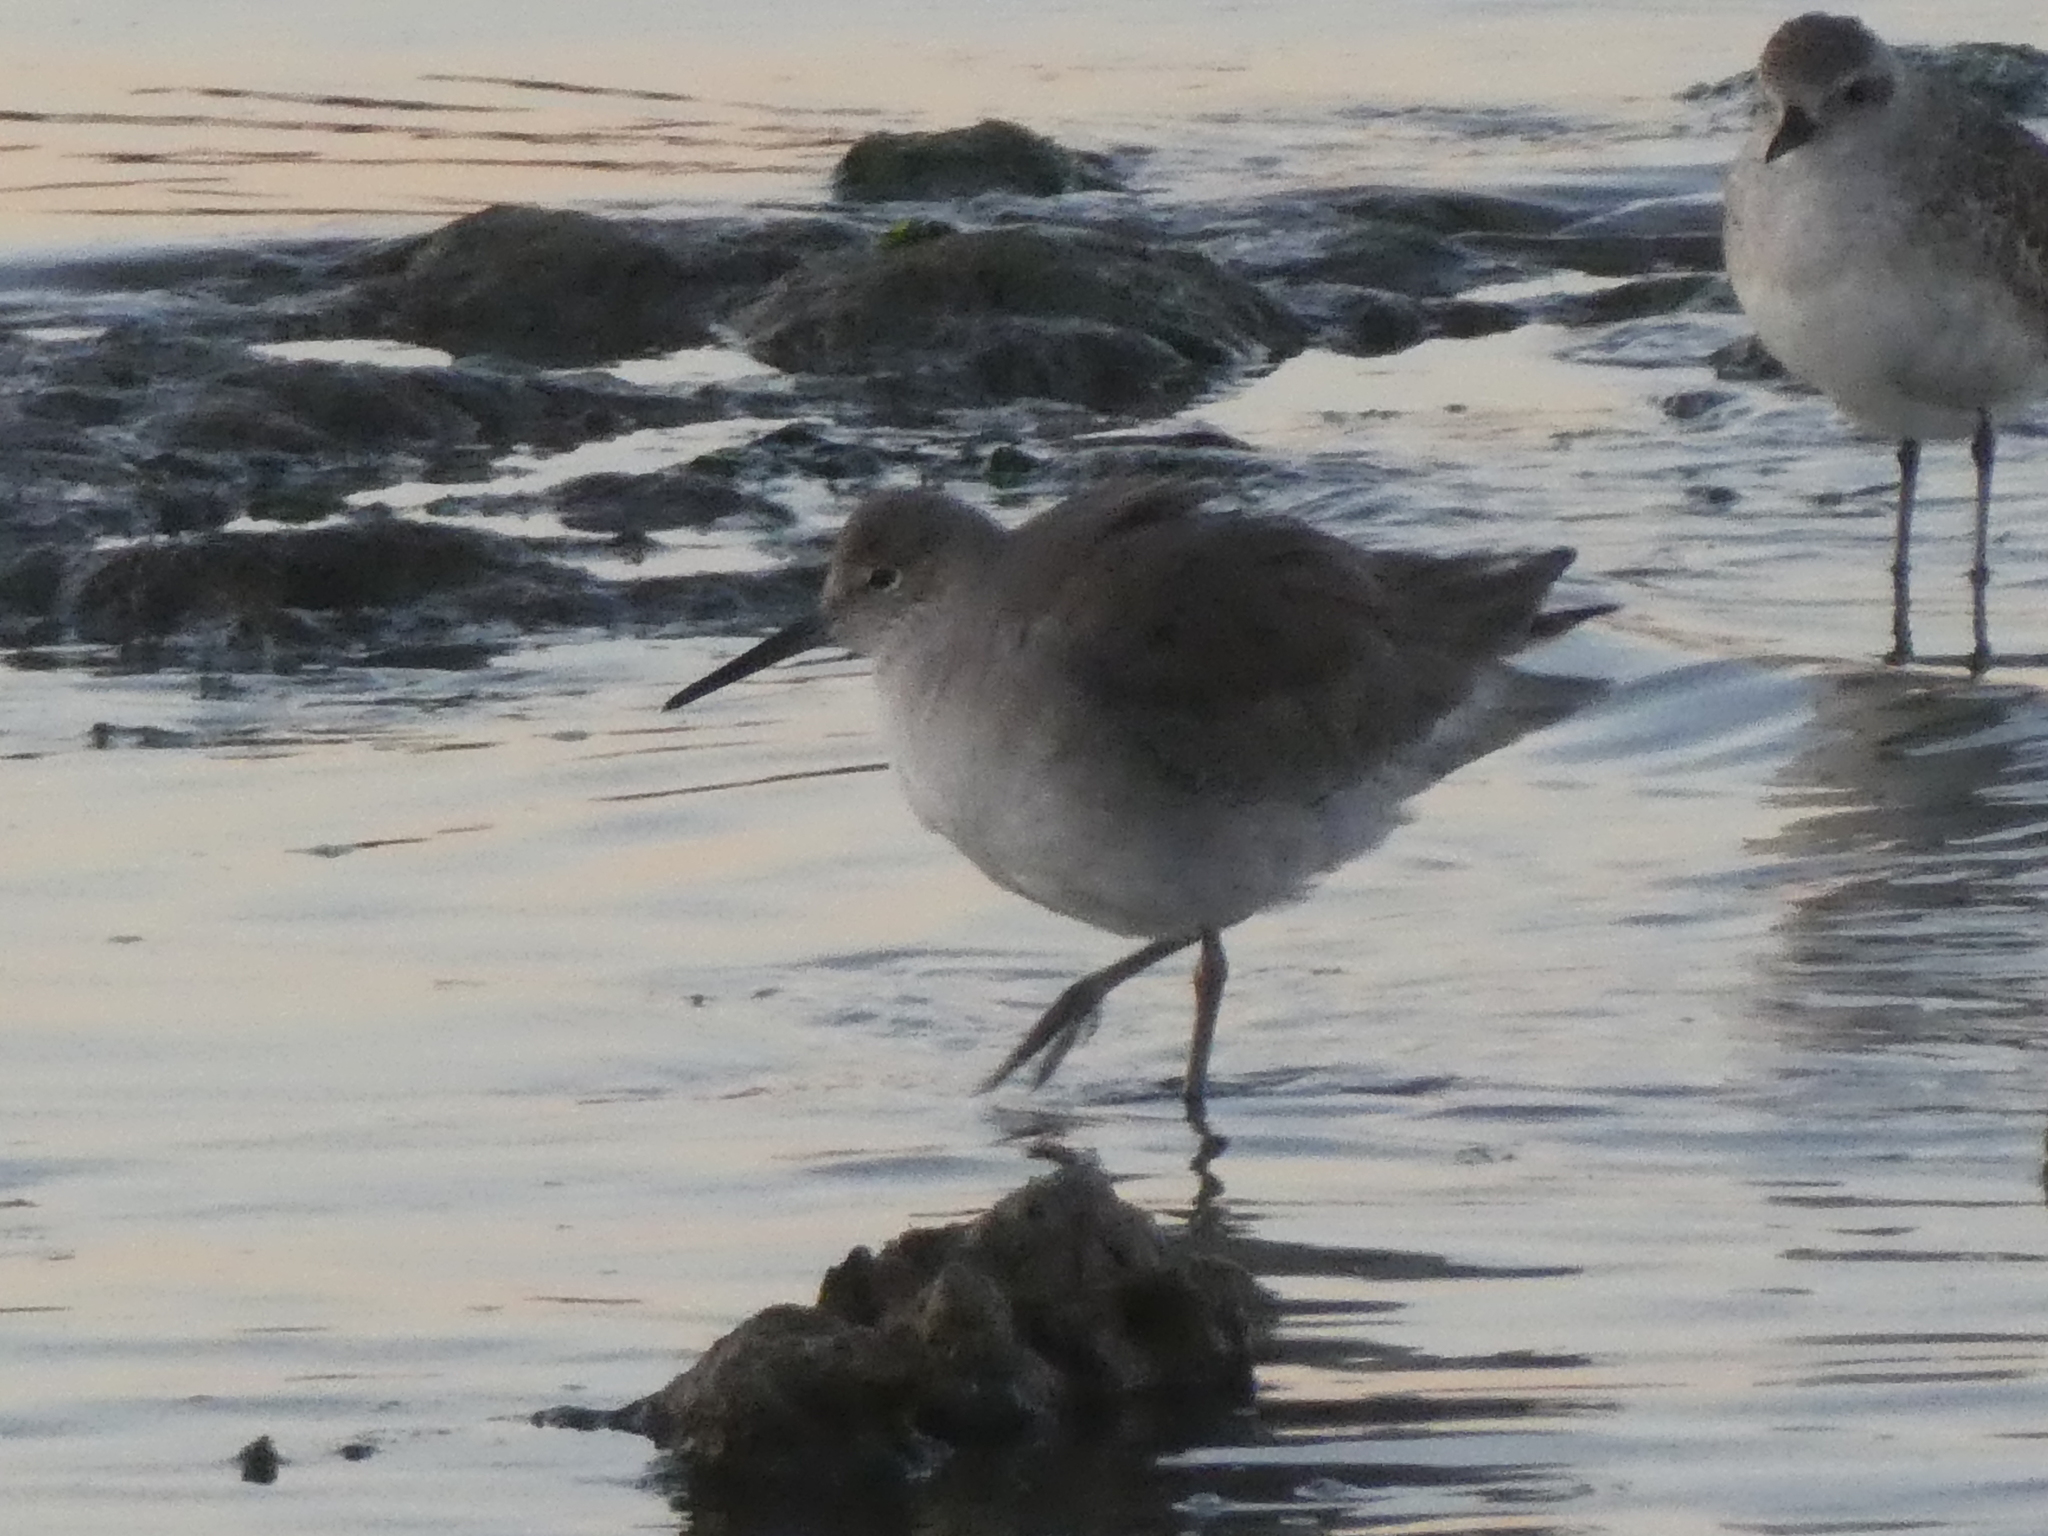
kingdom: Animalia
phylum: Chordata
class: Aves
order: Charadriiformes
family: Scolopacidae
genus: Tringa
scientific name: Tringa semipalmata
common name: Willet
